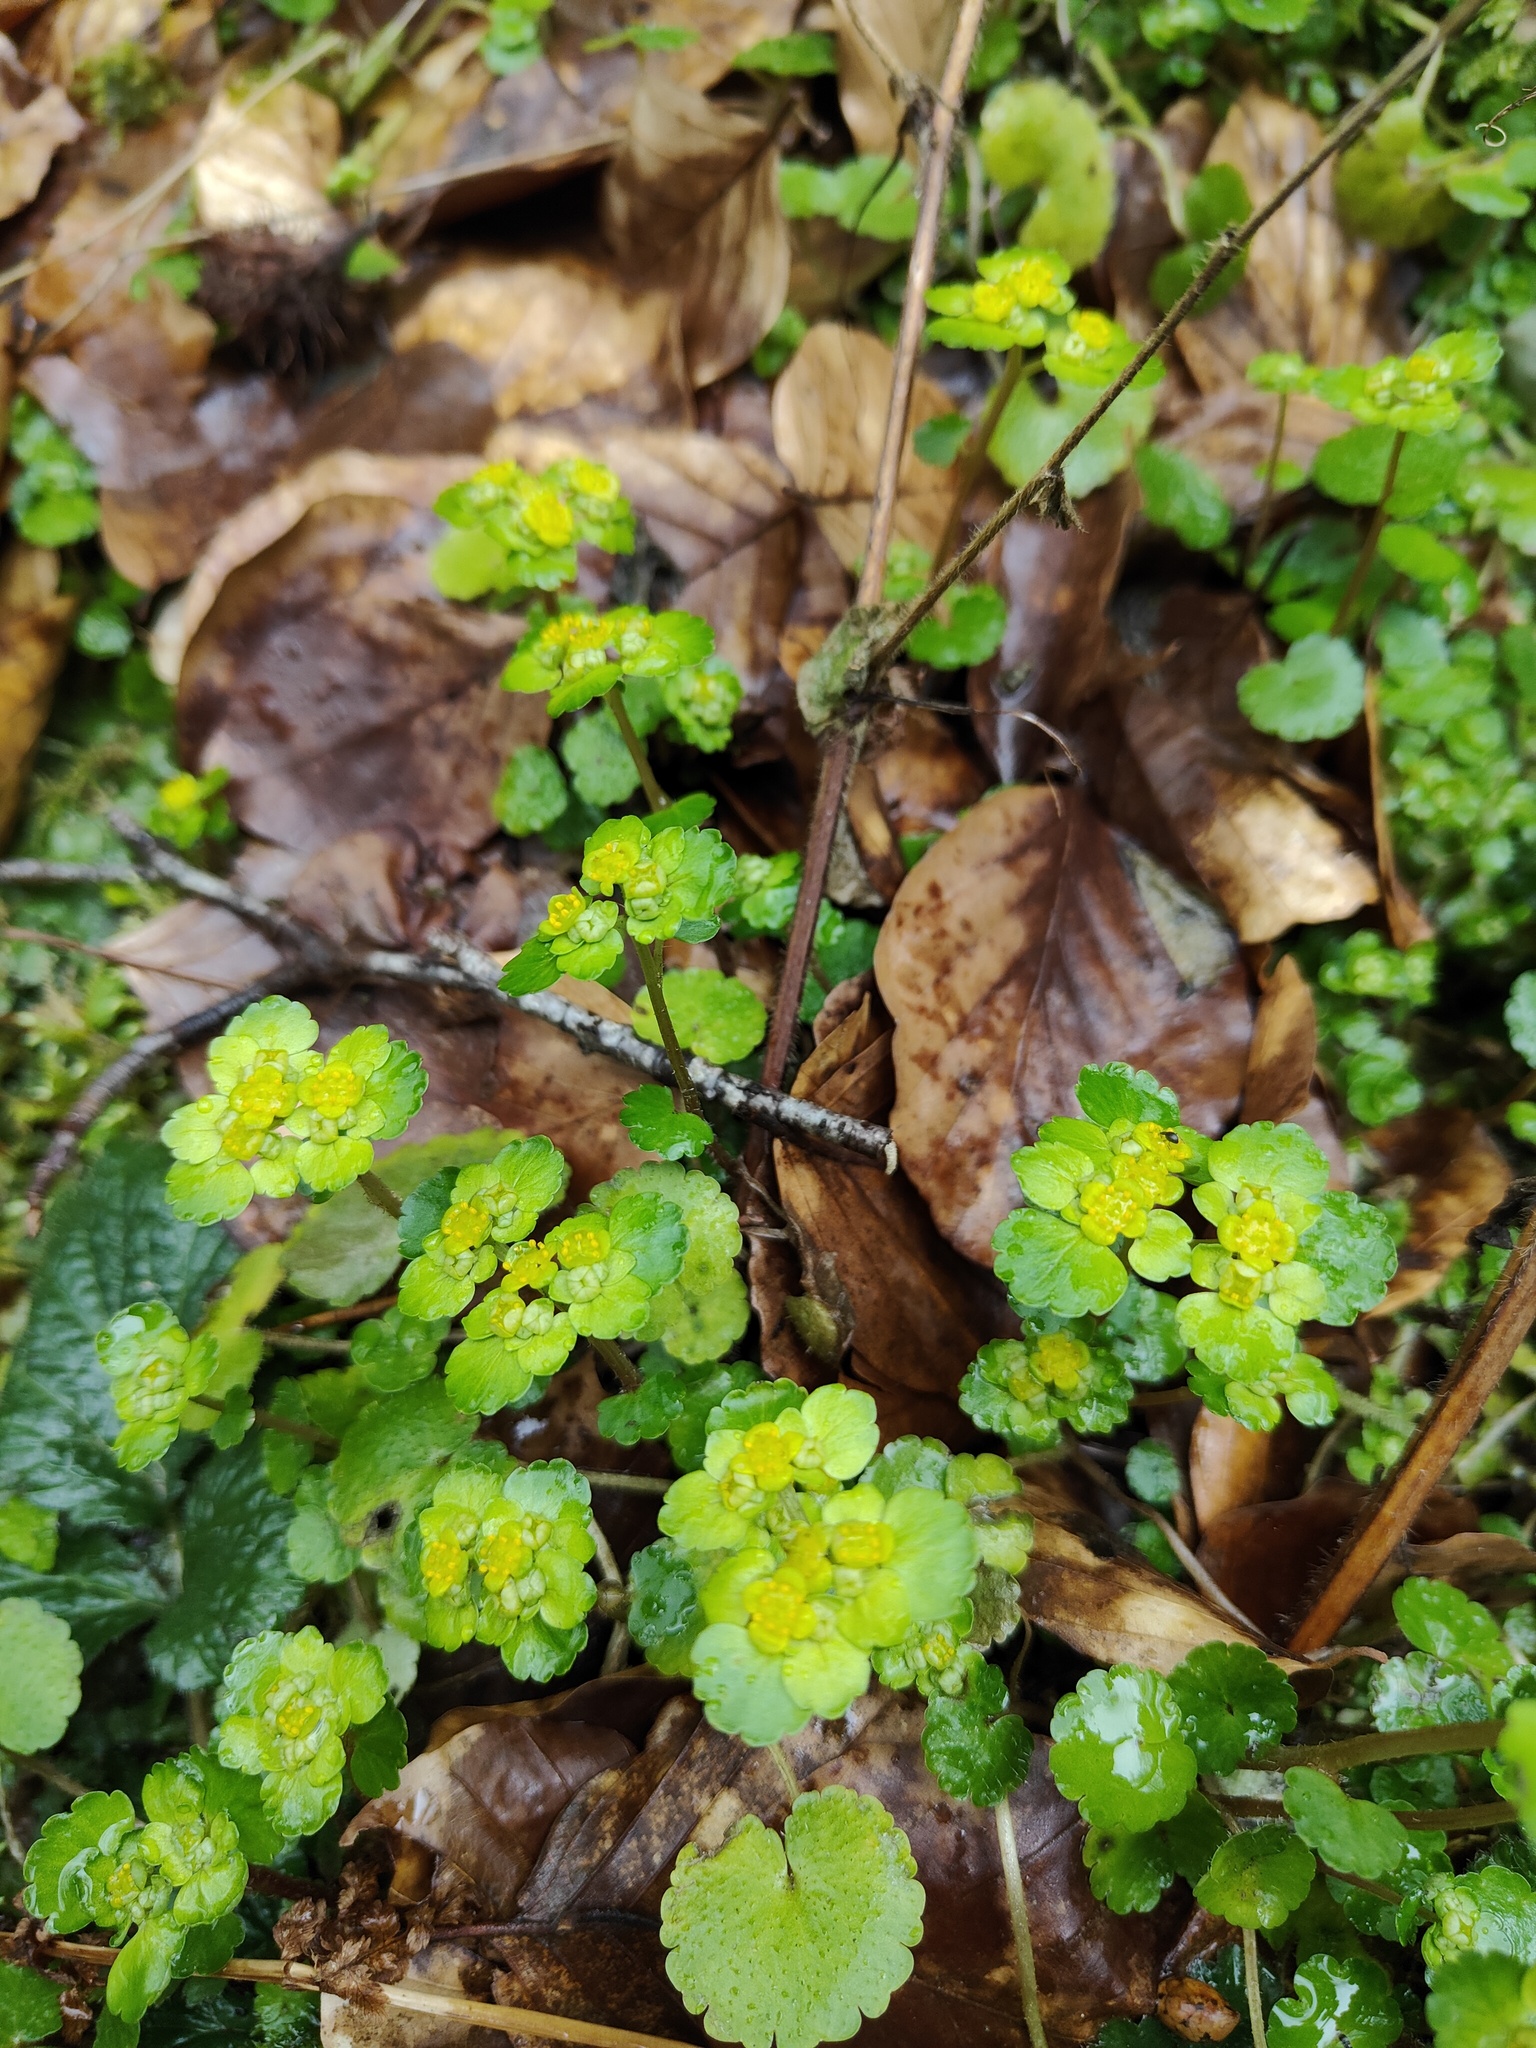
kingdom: Plantae
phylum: Tracheophyta
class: Magnoliopsida
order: Saxifragales
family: Saxifragaceae
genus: Chrysosplenium
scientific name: Chrysosplenium alternifolium
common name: Alternate-leaved golden-saxifrage
